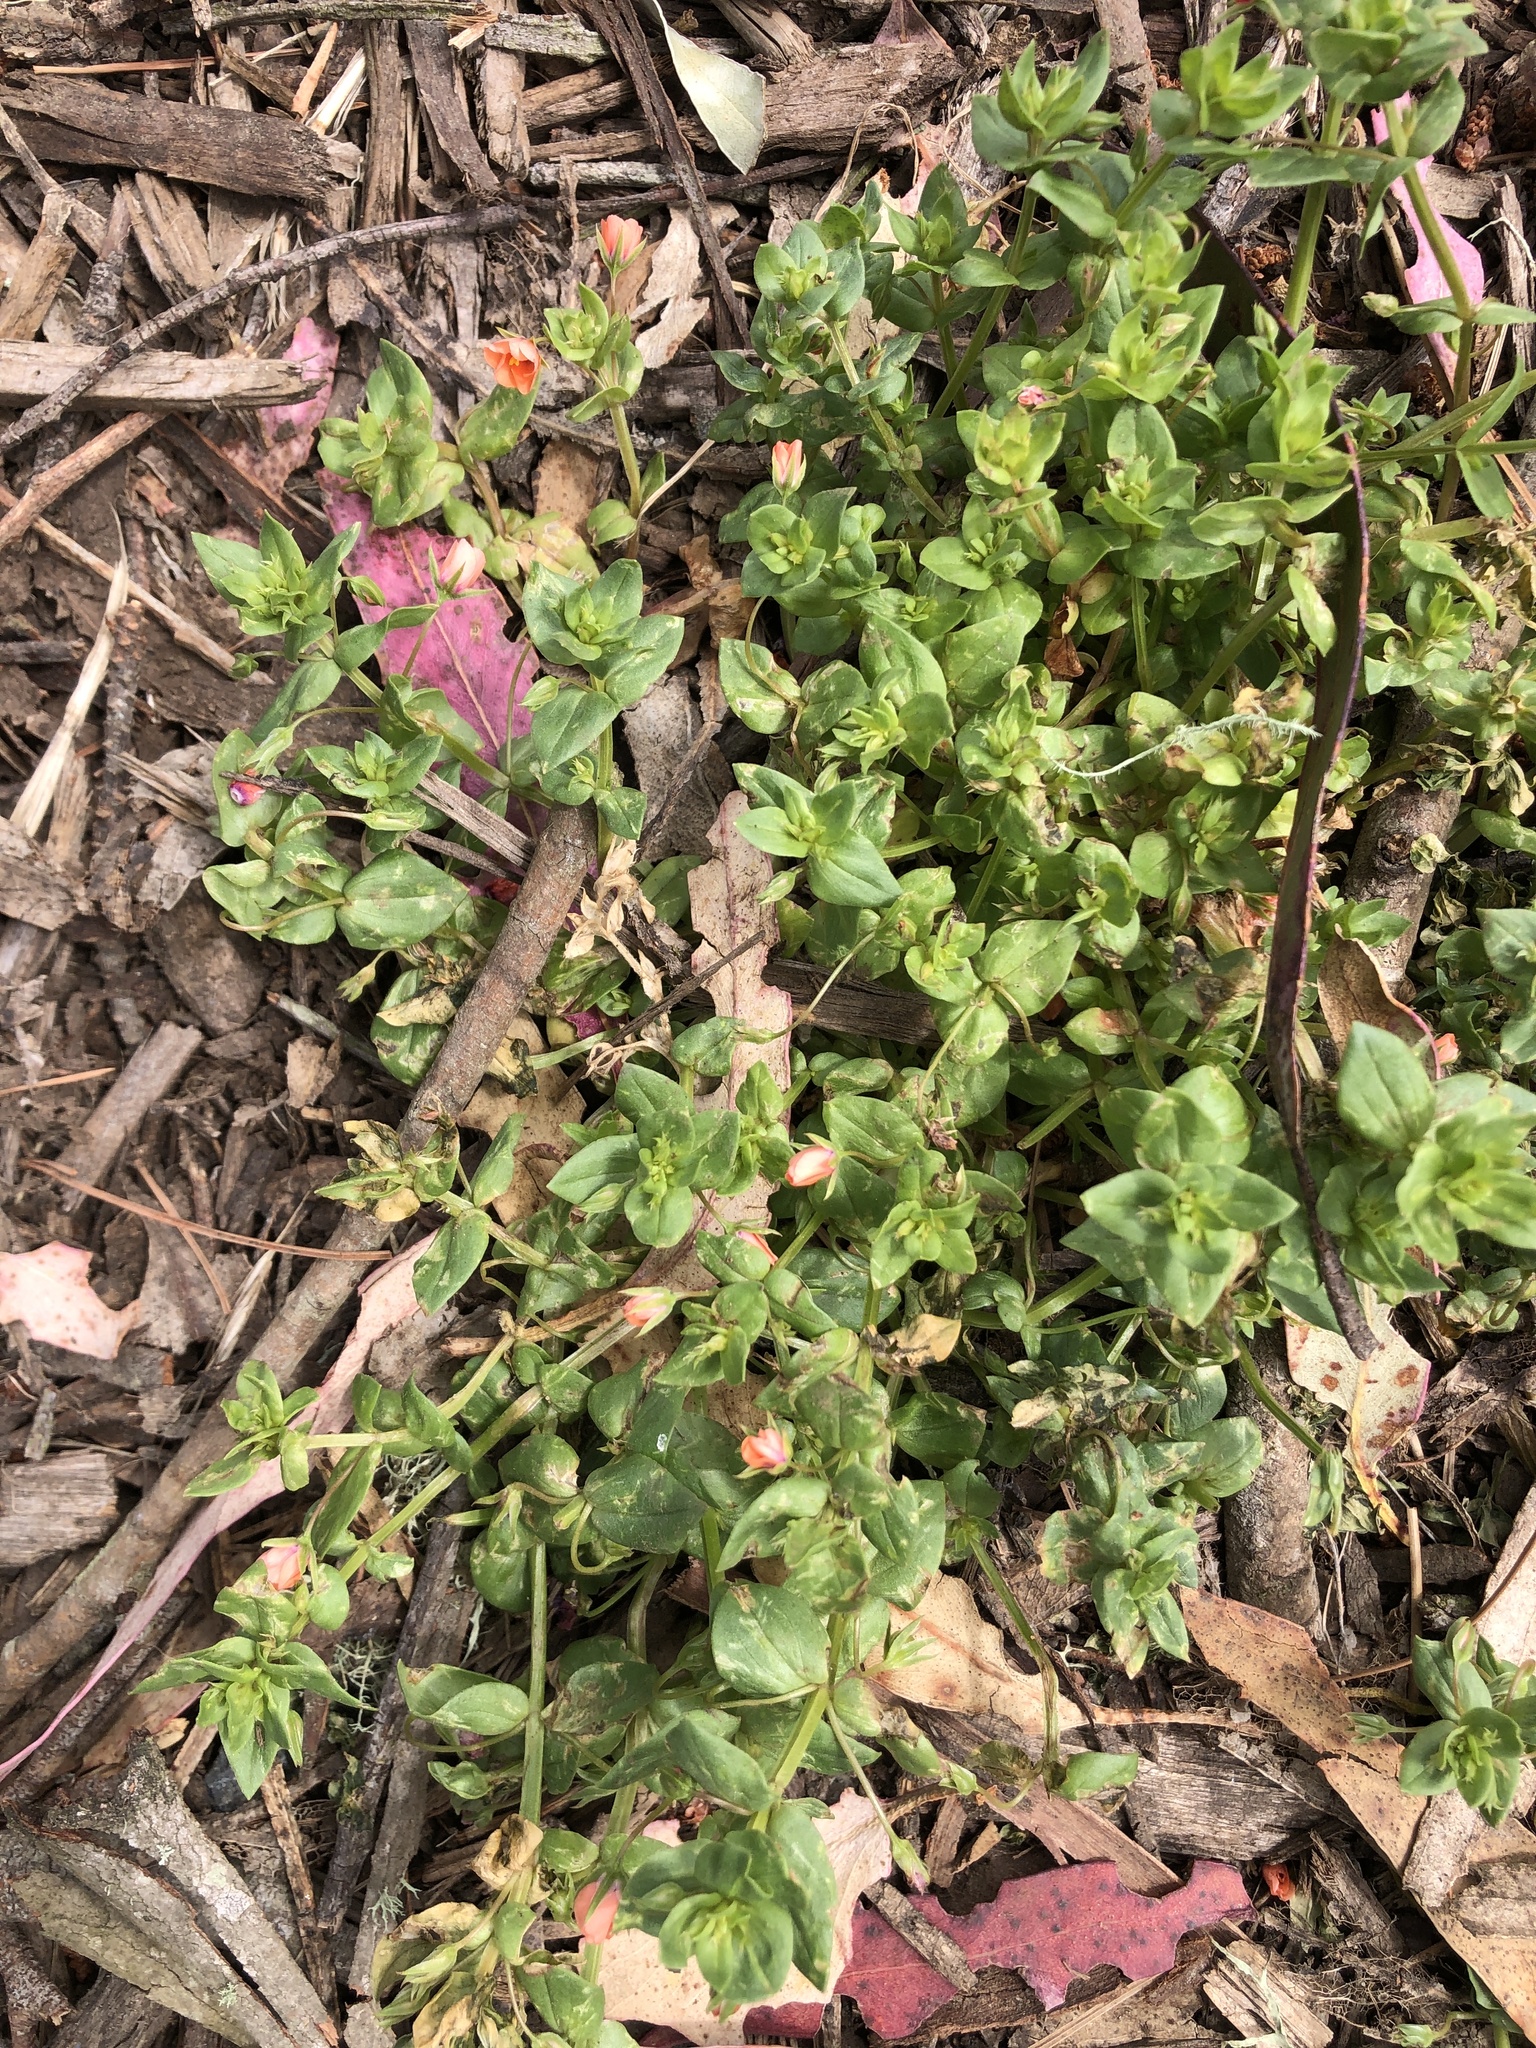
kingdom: Plantae
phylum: Tracheophyta
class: Magnoliopsida
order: Ericales
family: Primulaceae
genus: Lysimachia
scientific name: Lysimachia arvensis
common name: Scarlet pimpernel
